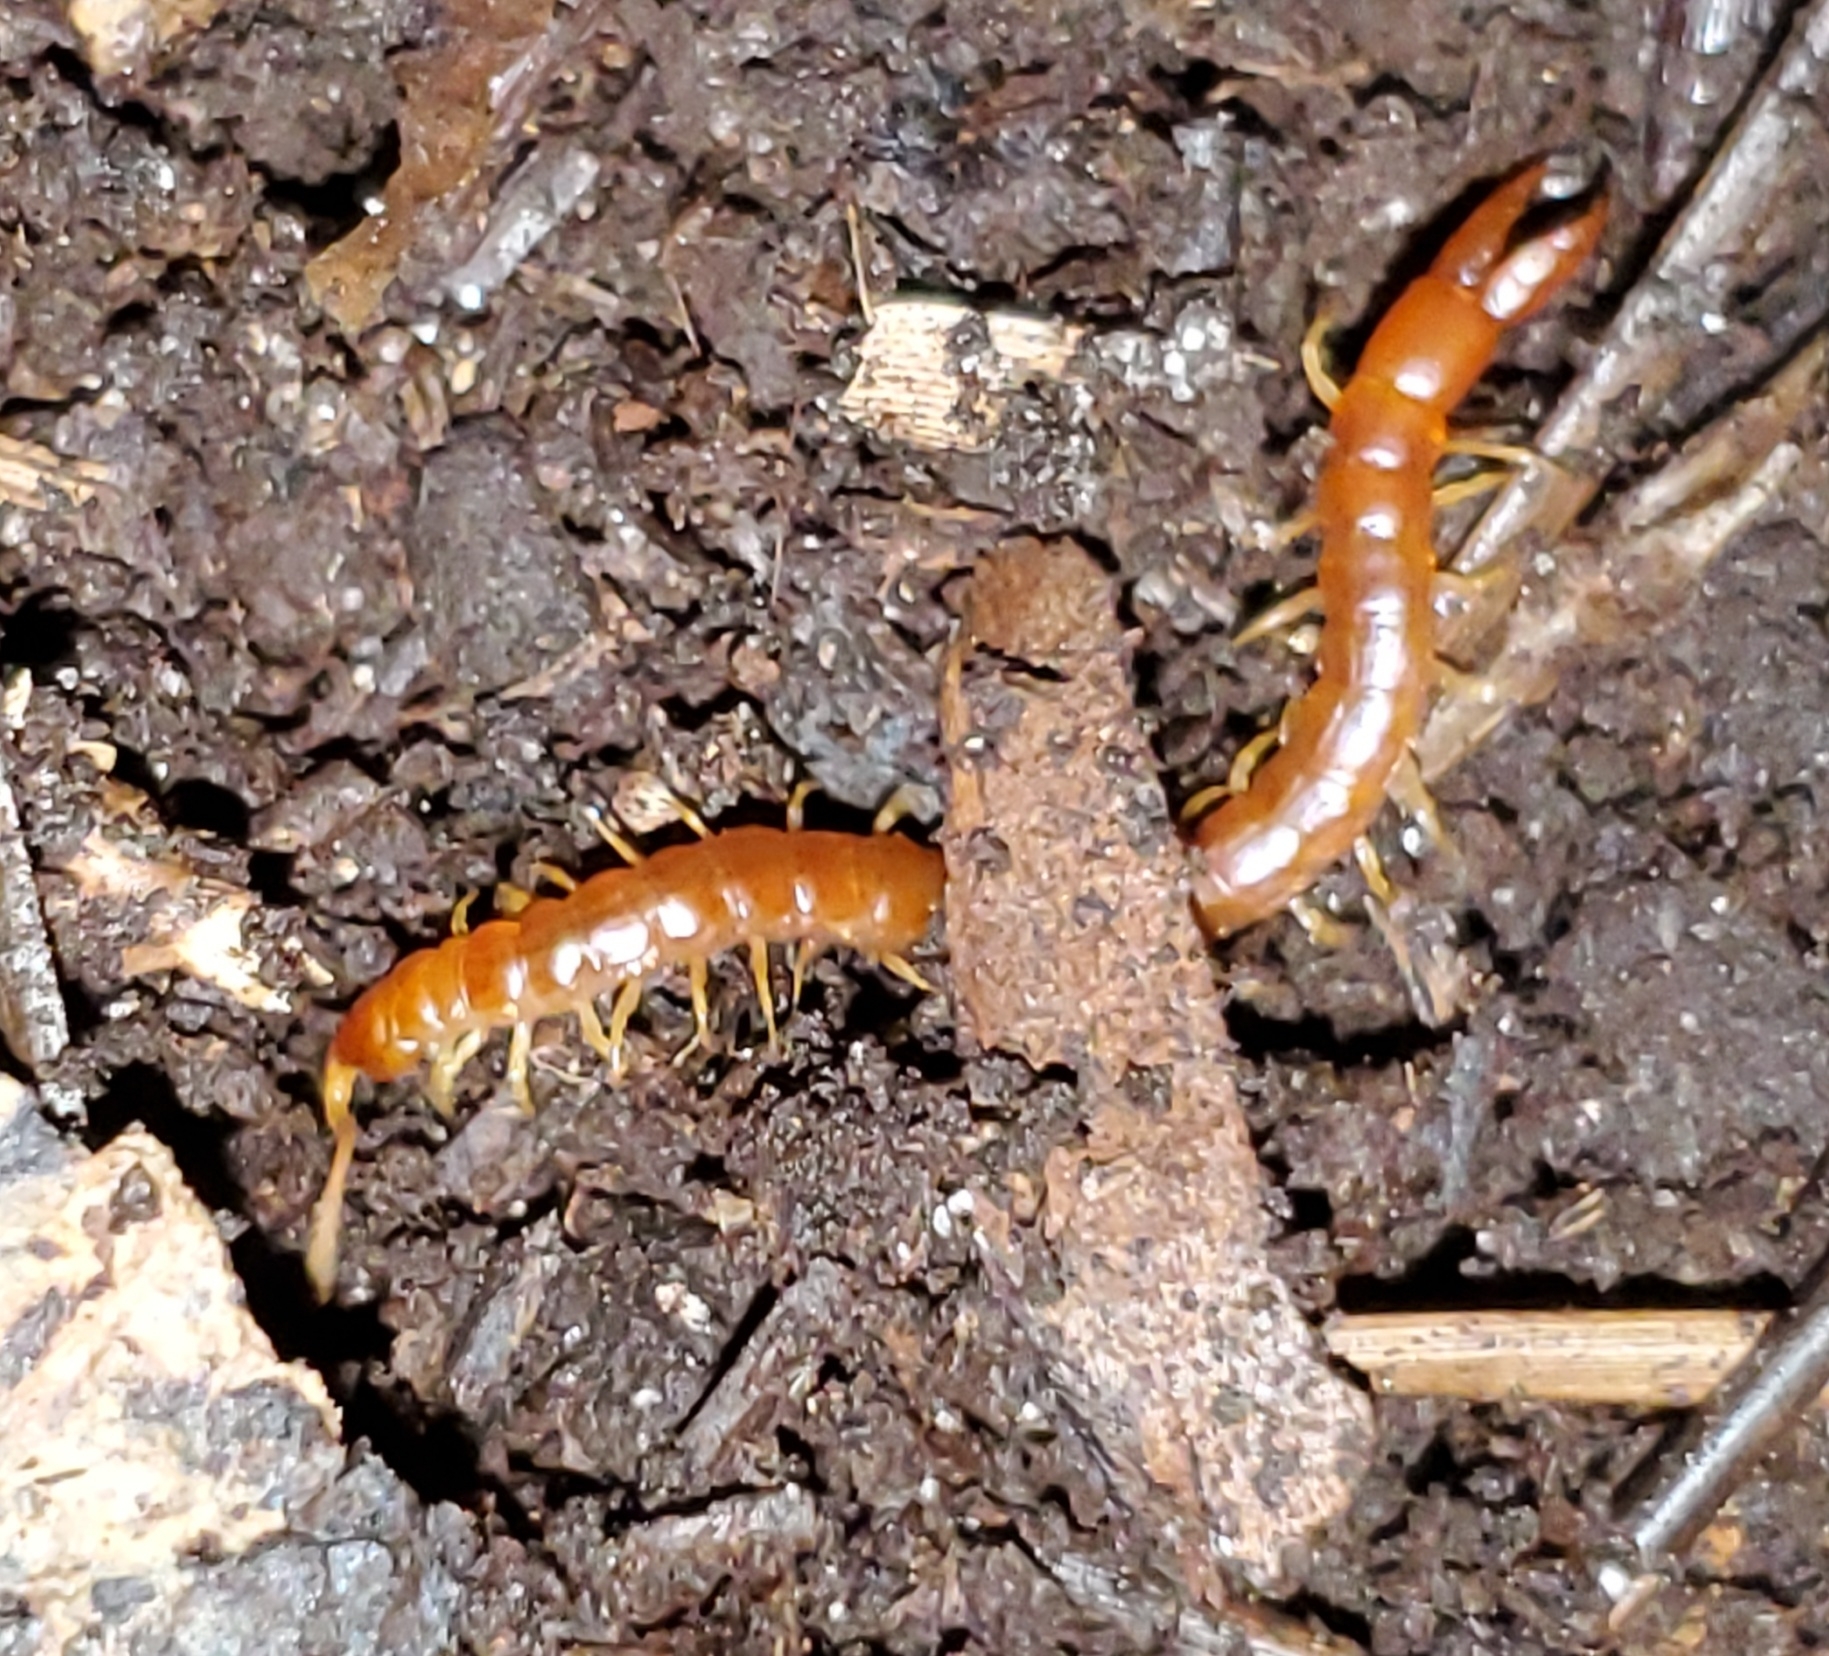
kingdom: Animalia
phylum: Arthropoda
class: Chilopoda
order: Scolopendromorpha
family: Cryptopidae
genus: Theatops
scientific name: Theatops posticus
